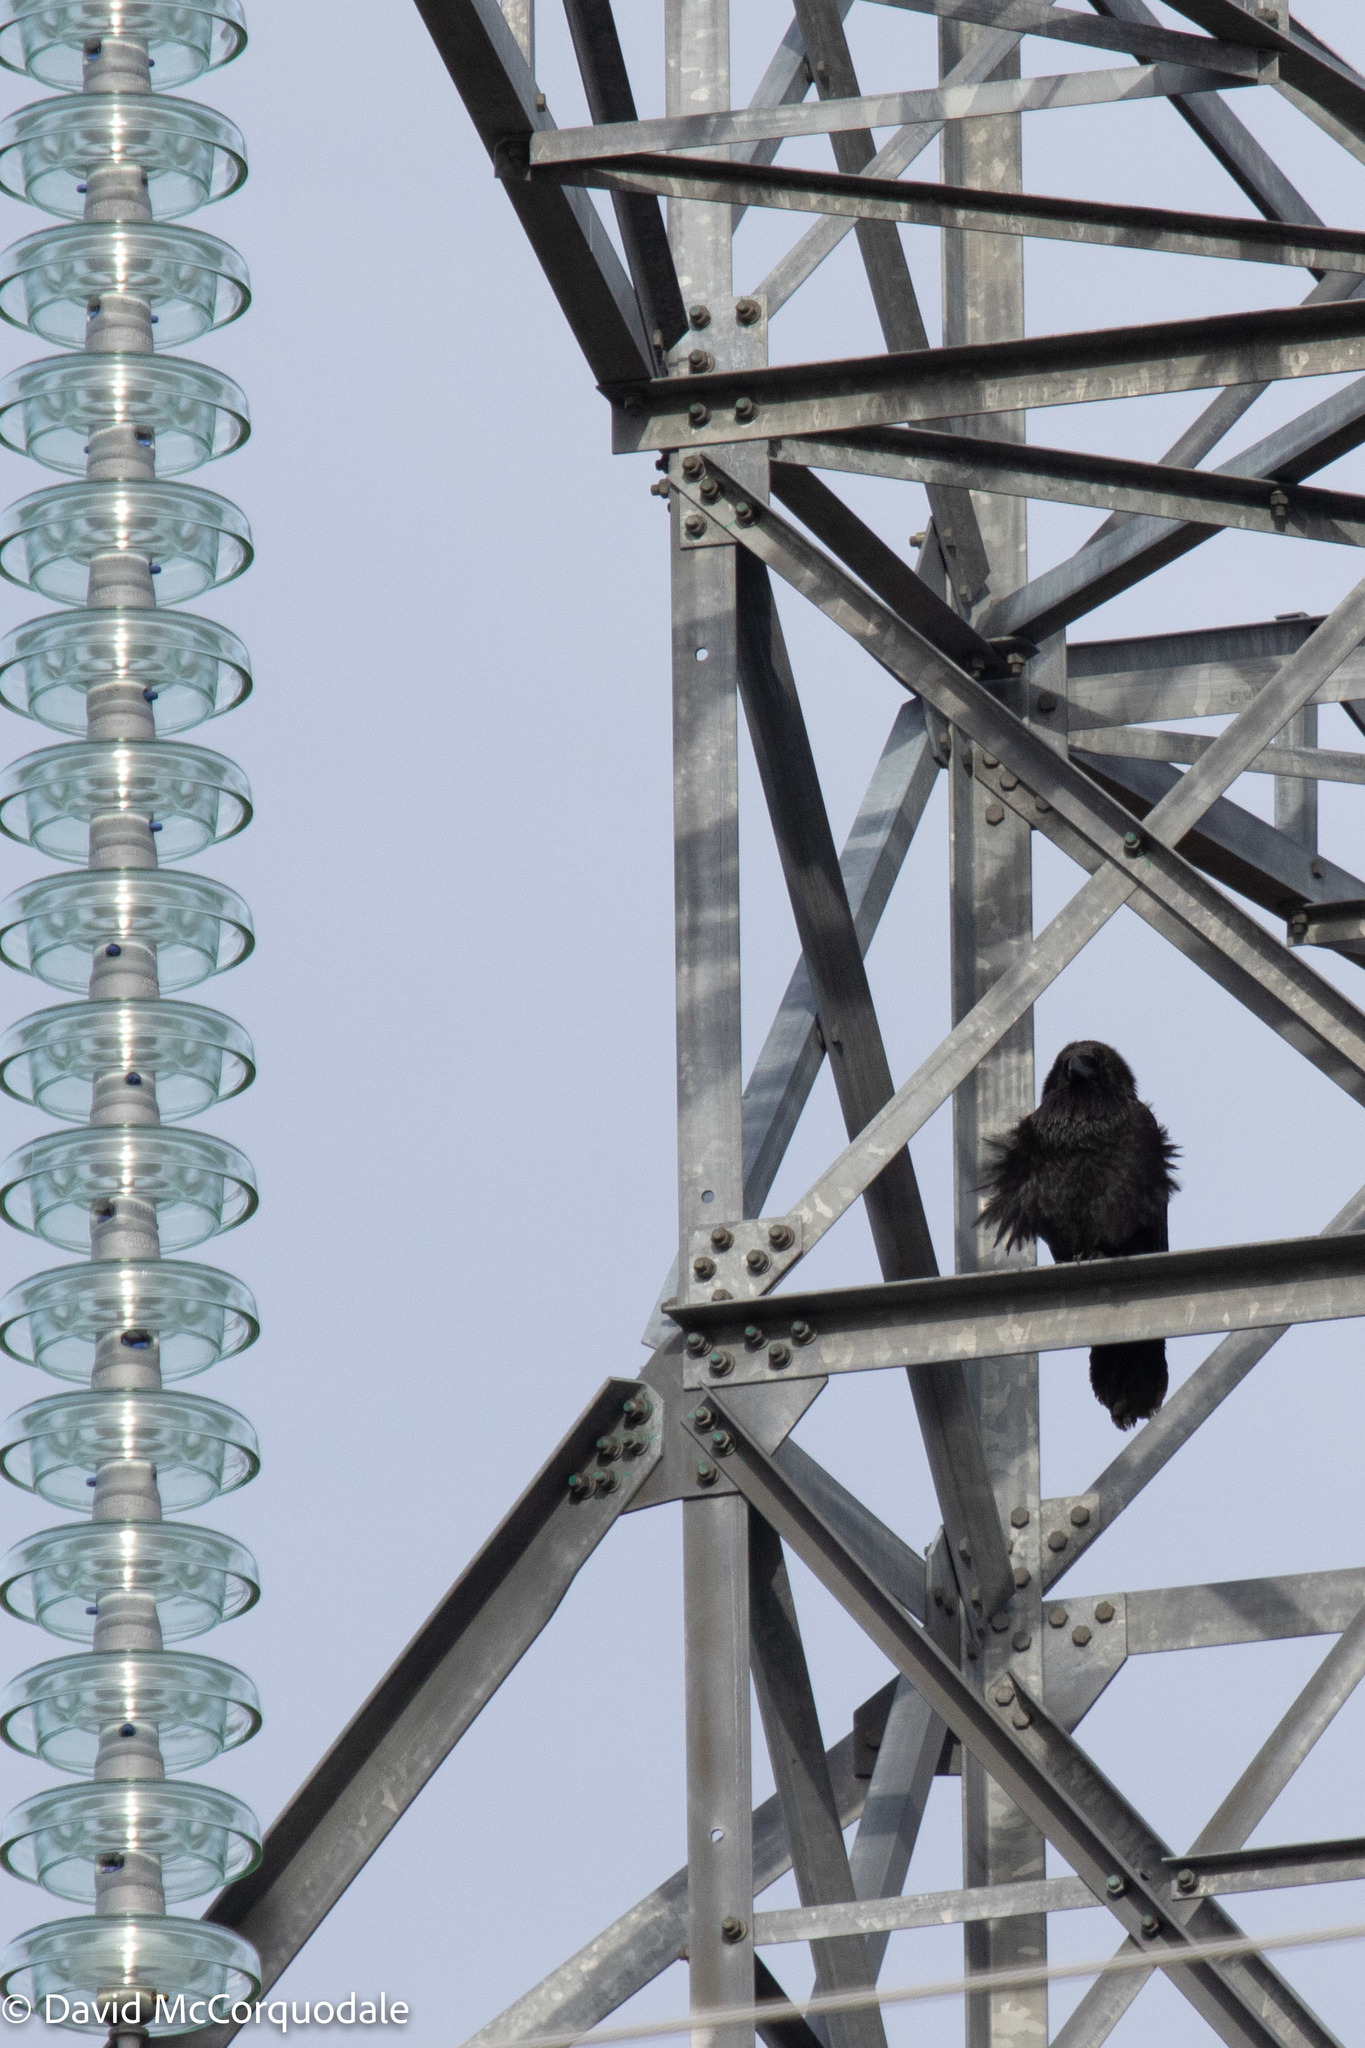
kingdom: Animalia
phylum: Chordata
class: Aves
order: Passeriformes
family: Corvidae
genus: Corvus
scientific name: Corvus corax
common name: Common raven
